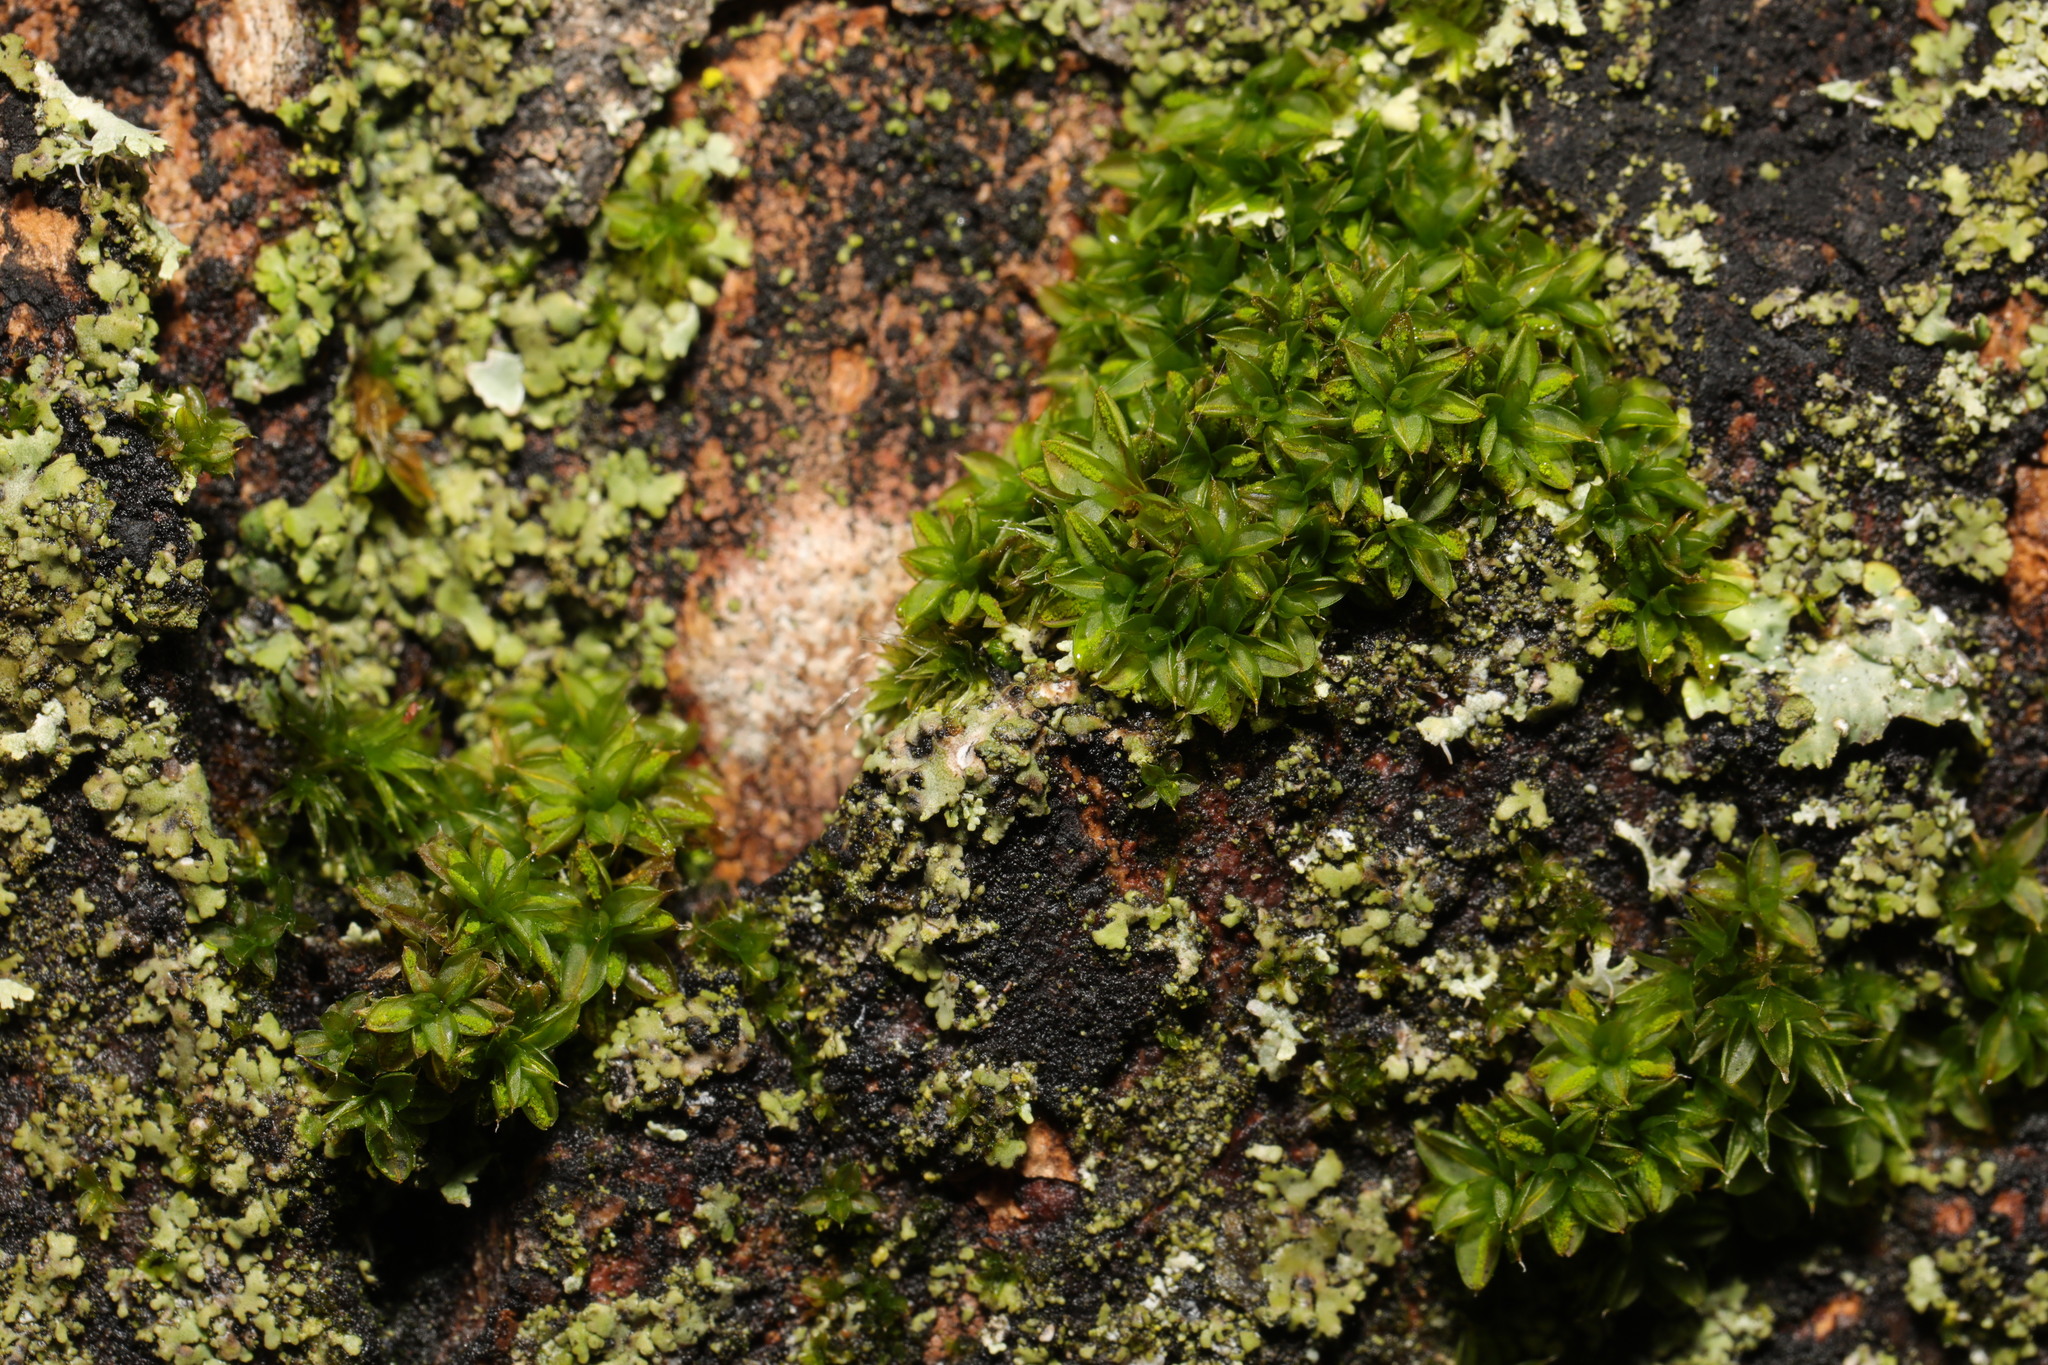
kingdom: Plantae
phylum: Bryophyta
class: Bryopsida
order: Pottiales
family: Pottiaceae
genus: Syntrichia
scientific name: Syntrichia papillosa
